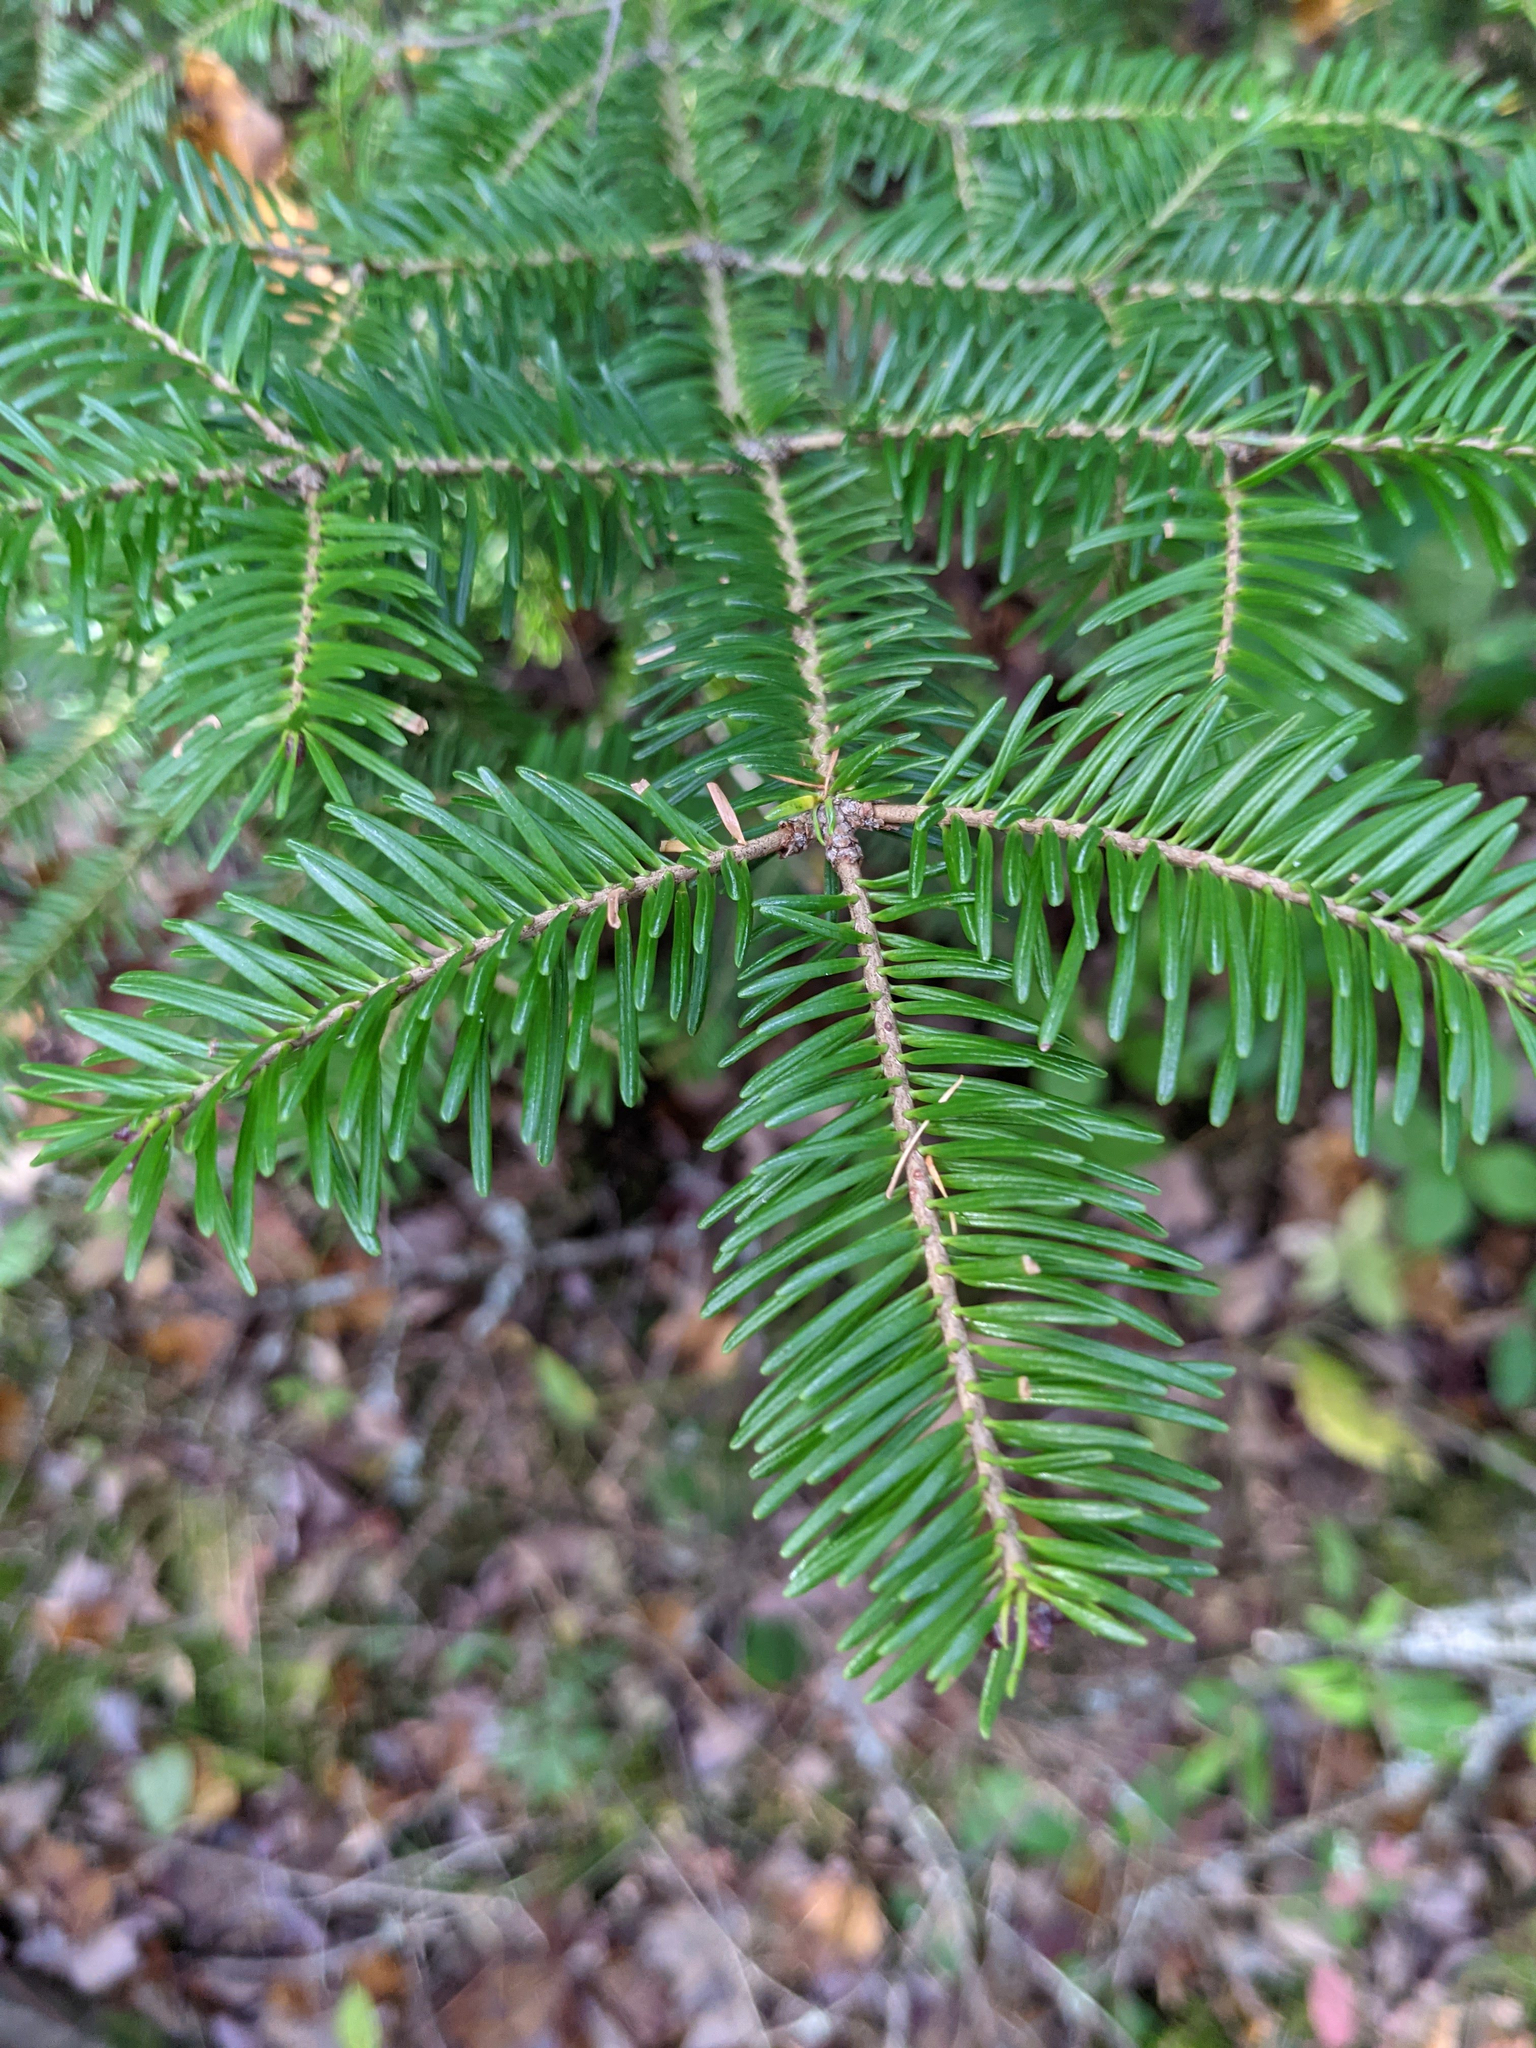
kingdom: Plantae
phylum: Tracheophyta
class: Pinopsida
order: Pinales
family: Pinaceae
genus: Abies
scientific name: Abies balsamea
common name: Balsam fir
